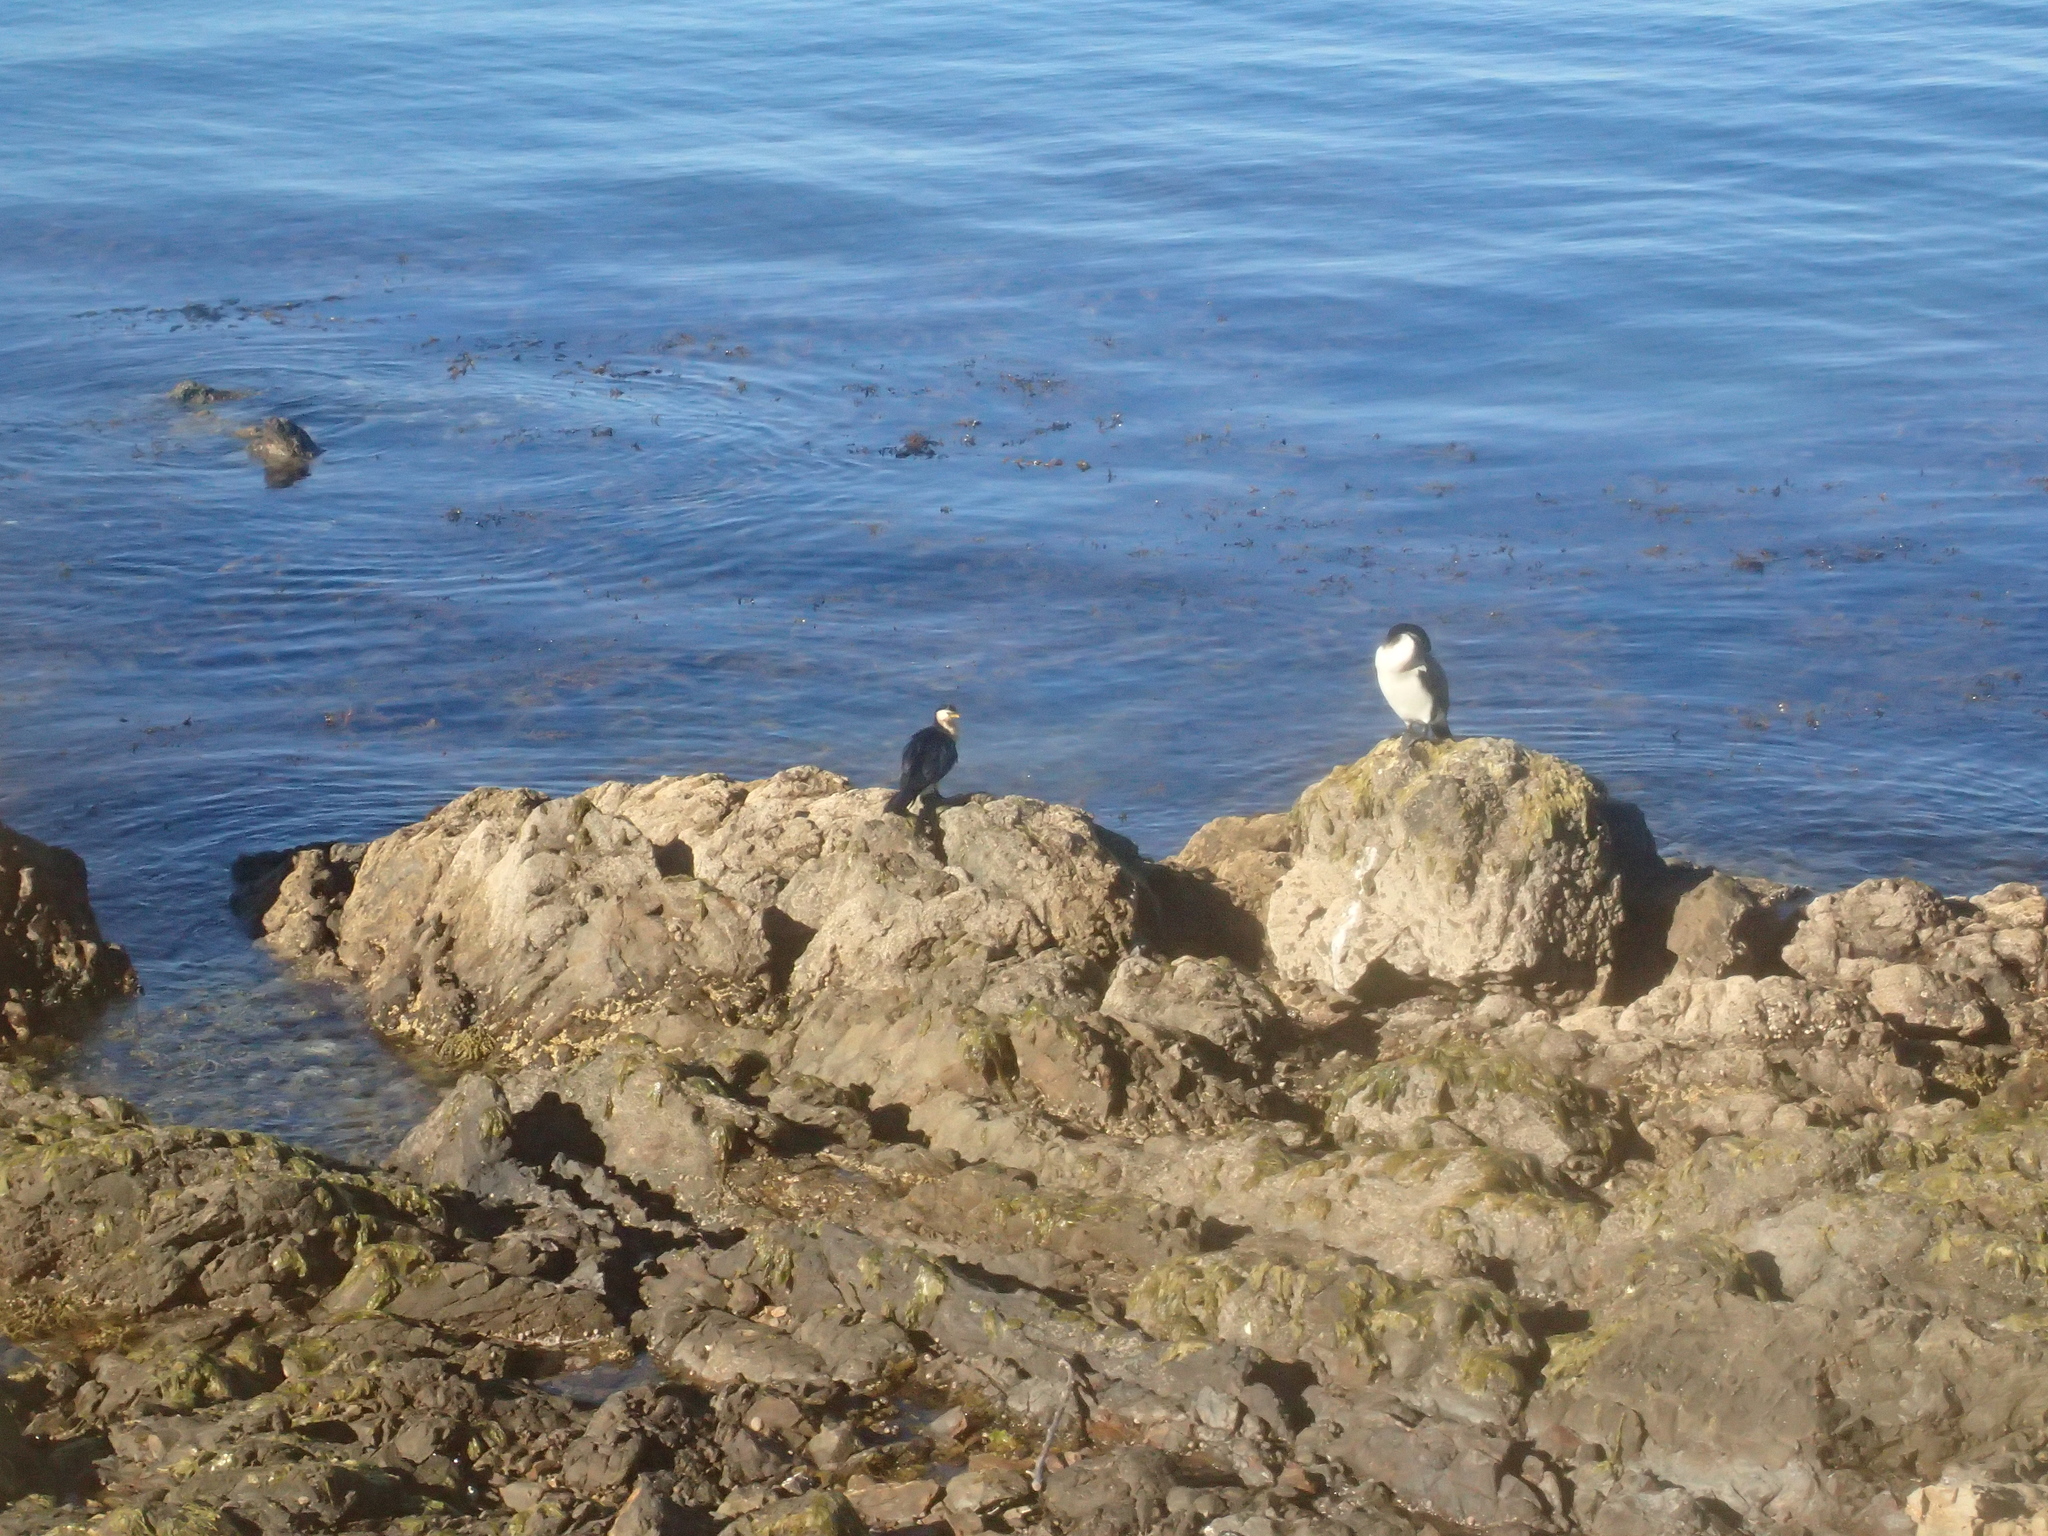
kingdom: Animalia
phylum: Chordata
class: Aves
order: Suliformes
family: Phalacrocoracidae
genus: Microcarbo
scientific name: Microcarbo melanoleucos
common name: Little pied cormorant
